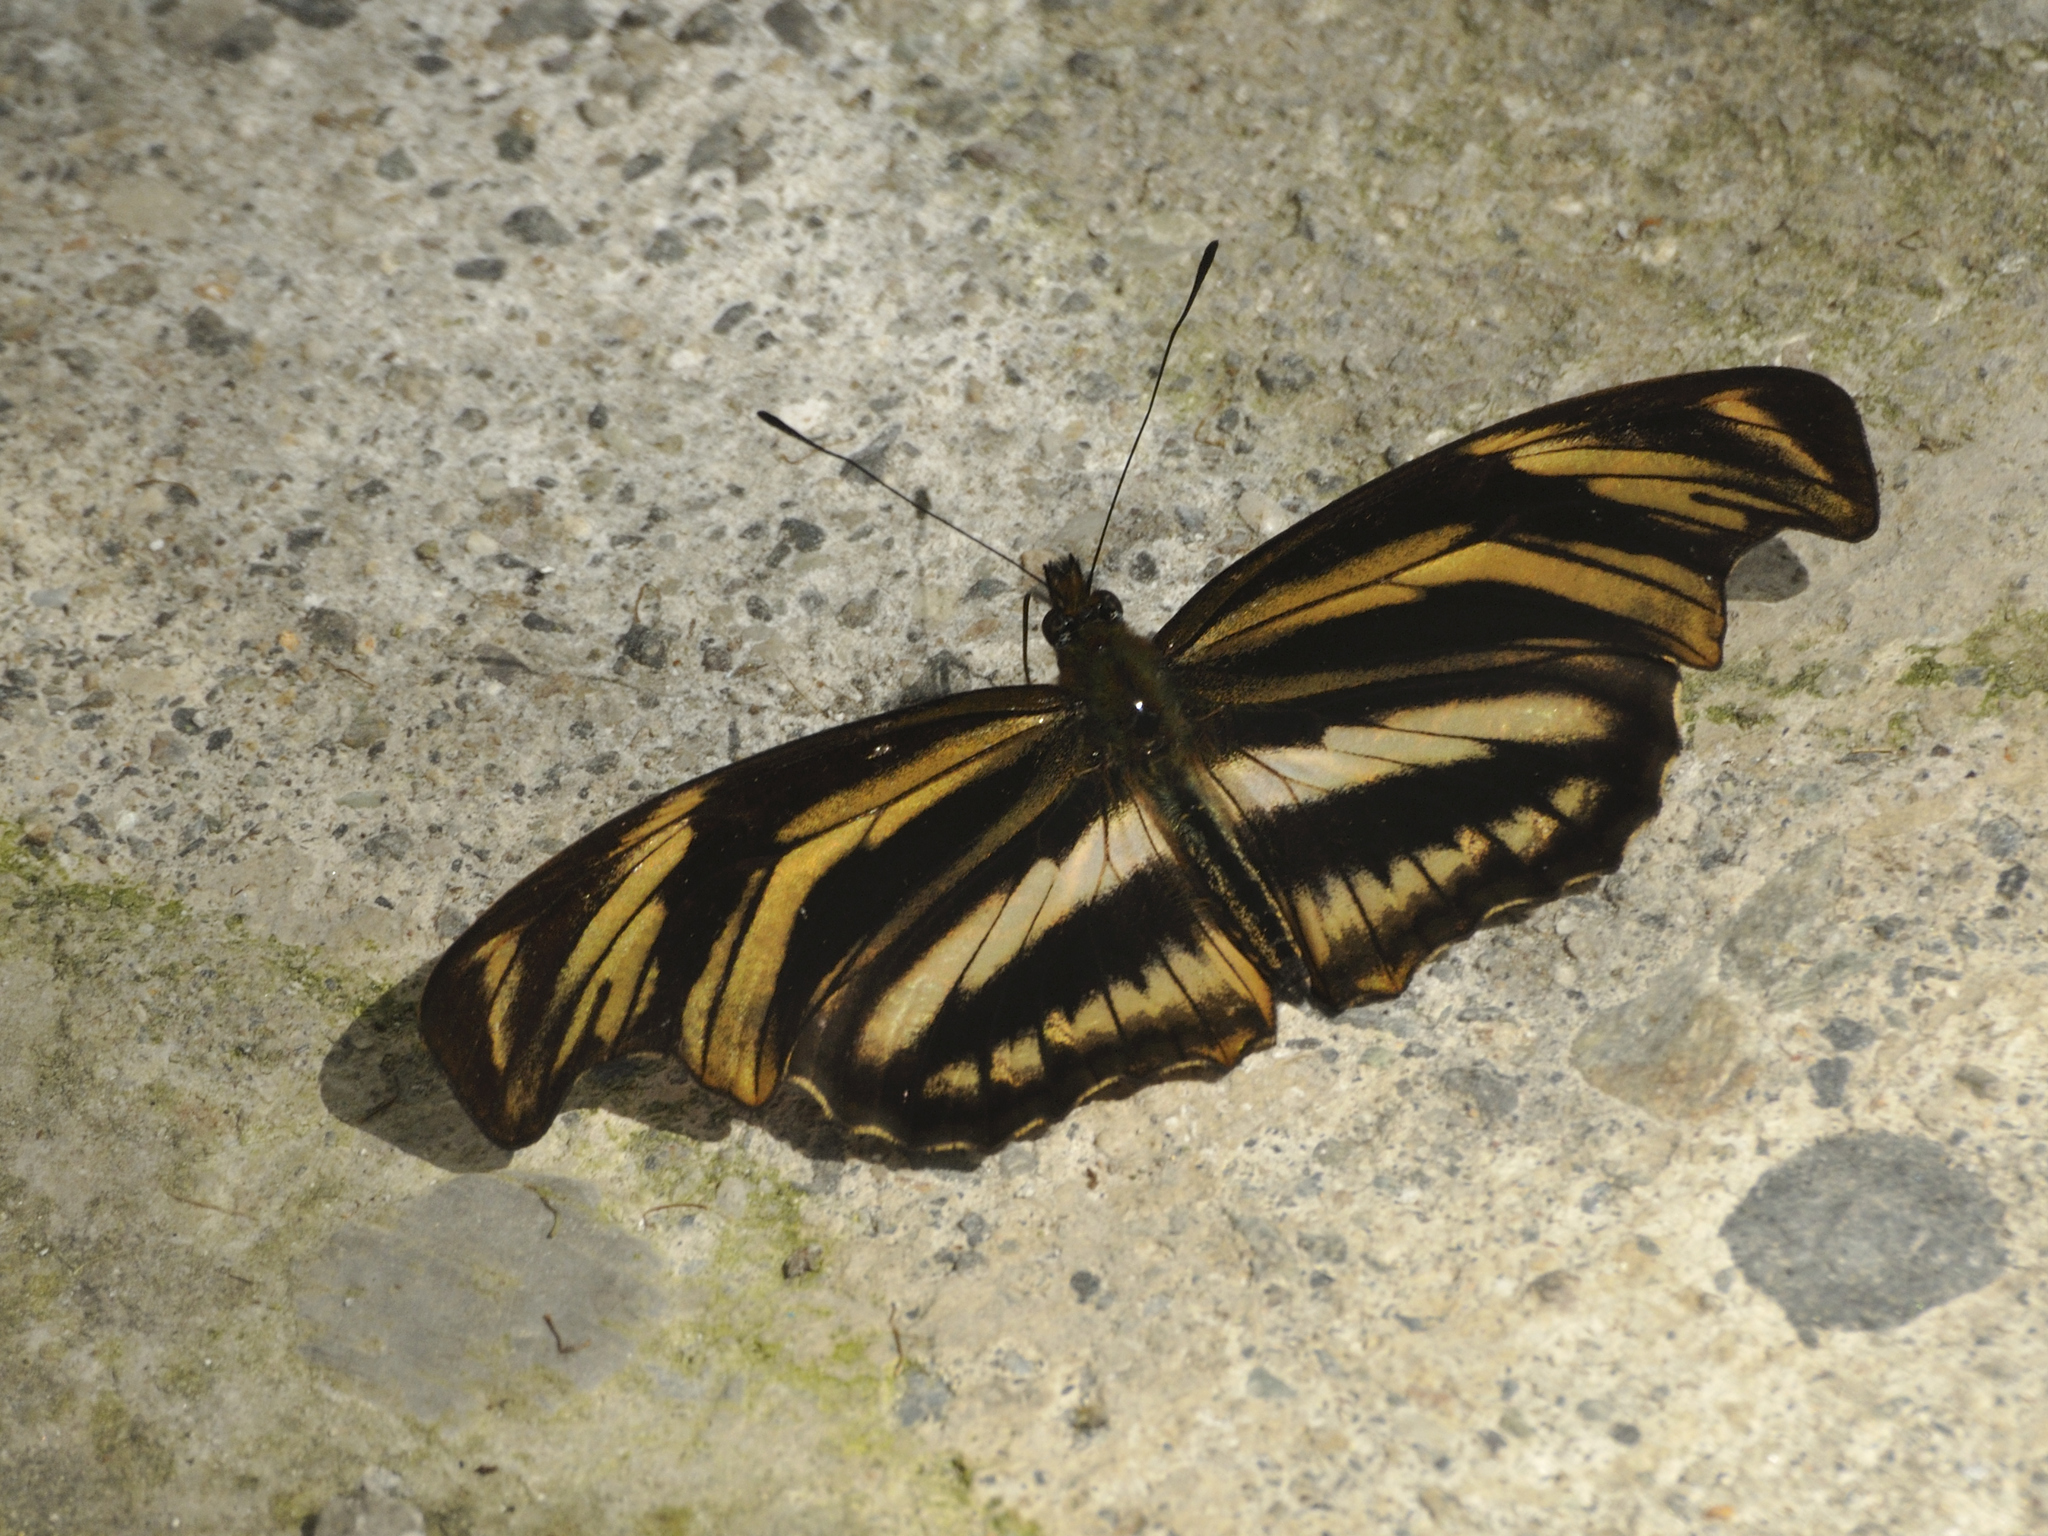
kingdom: Animalia
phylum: Arthropoda
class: Insecta
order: Lepidoptera
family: Nymphalidae
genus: Podotricha
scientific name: Podotricha judith
